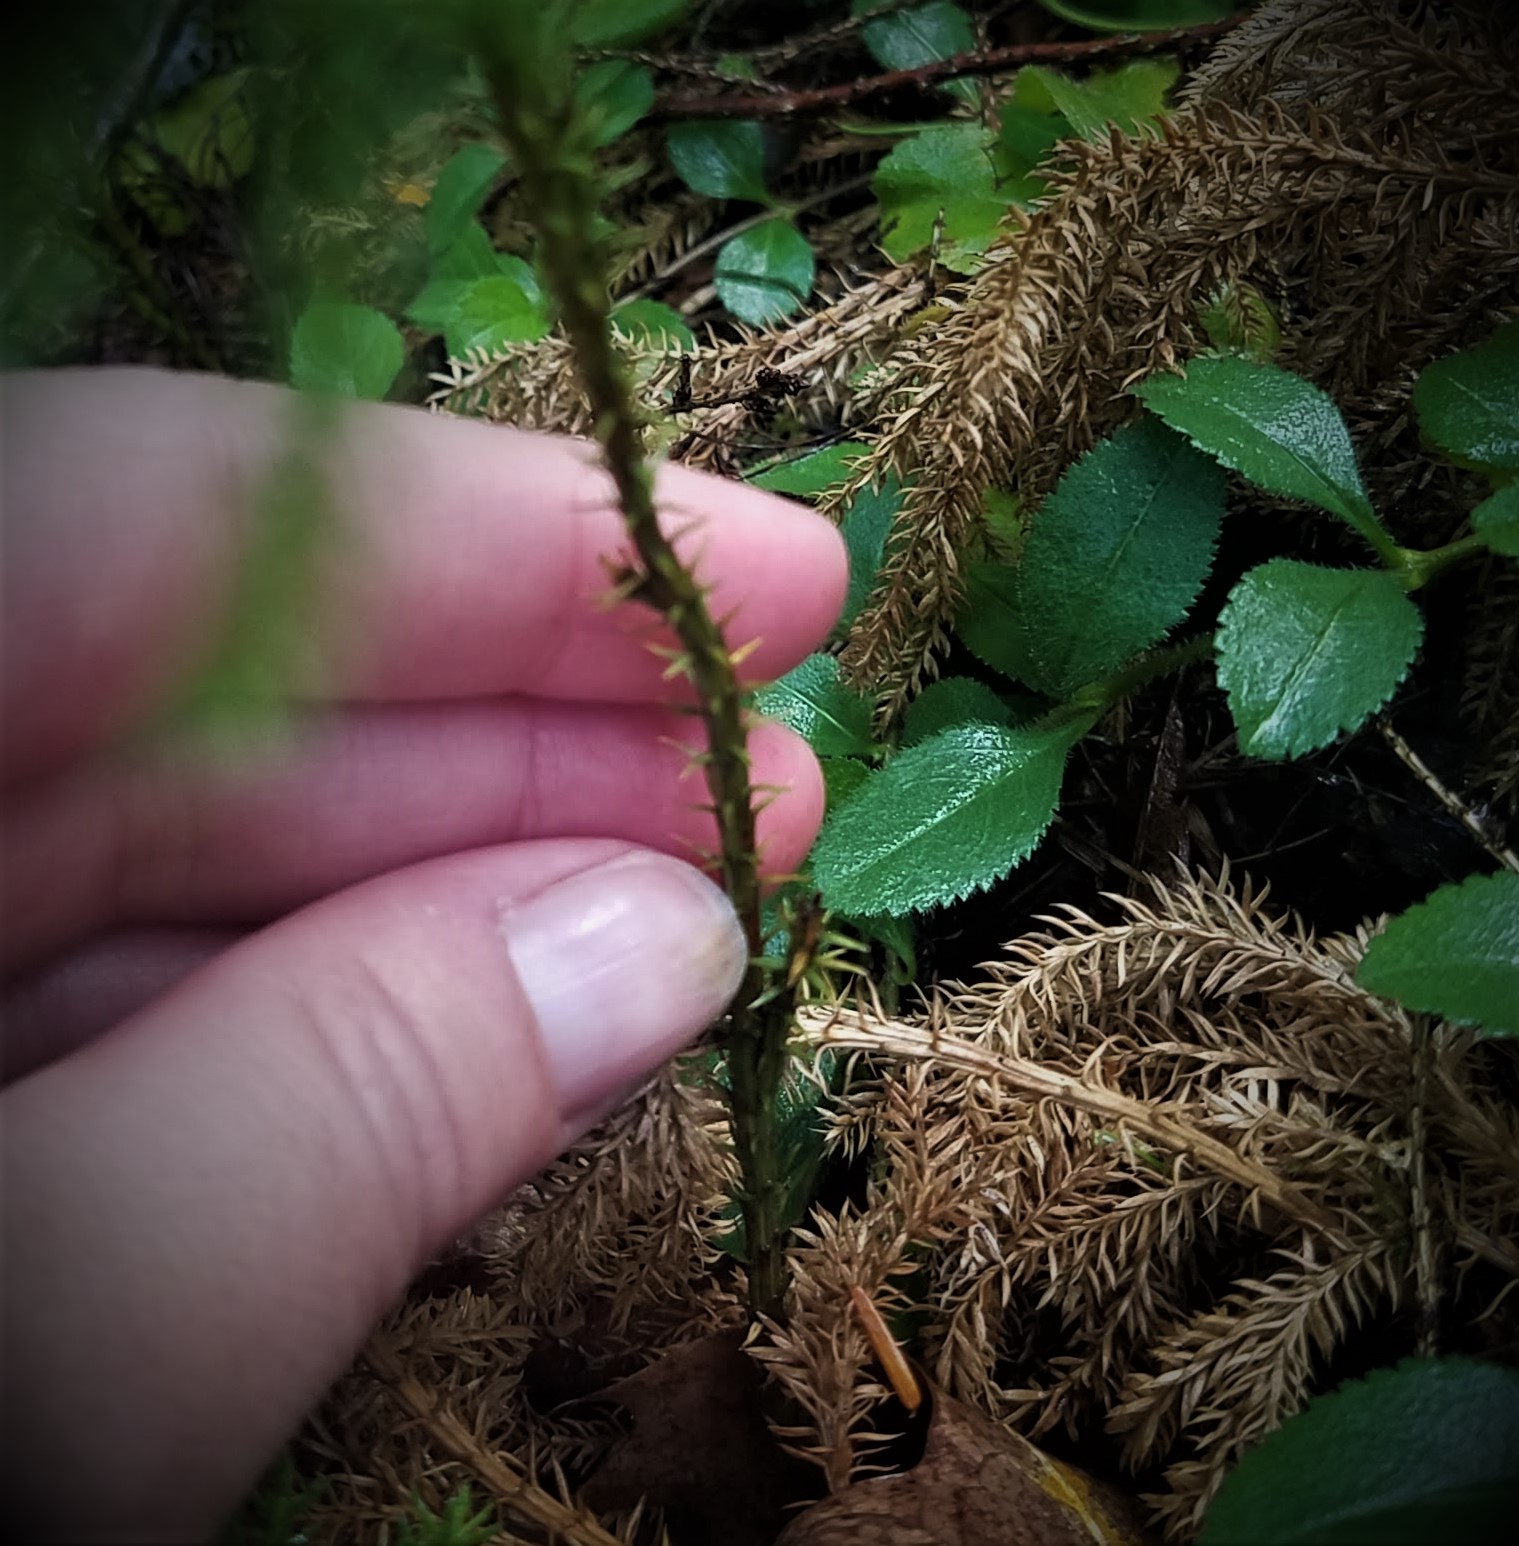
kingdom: Plantae
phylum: Tracheophyta
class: Lycopodiopsida
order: Lycopodiales
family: Lycopodiaceae
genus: Dendrolycopodium
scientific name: Dendrolycopodium dendroideum
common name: Northern tree-clubmoss
